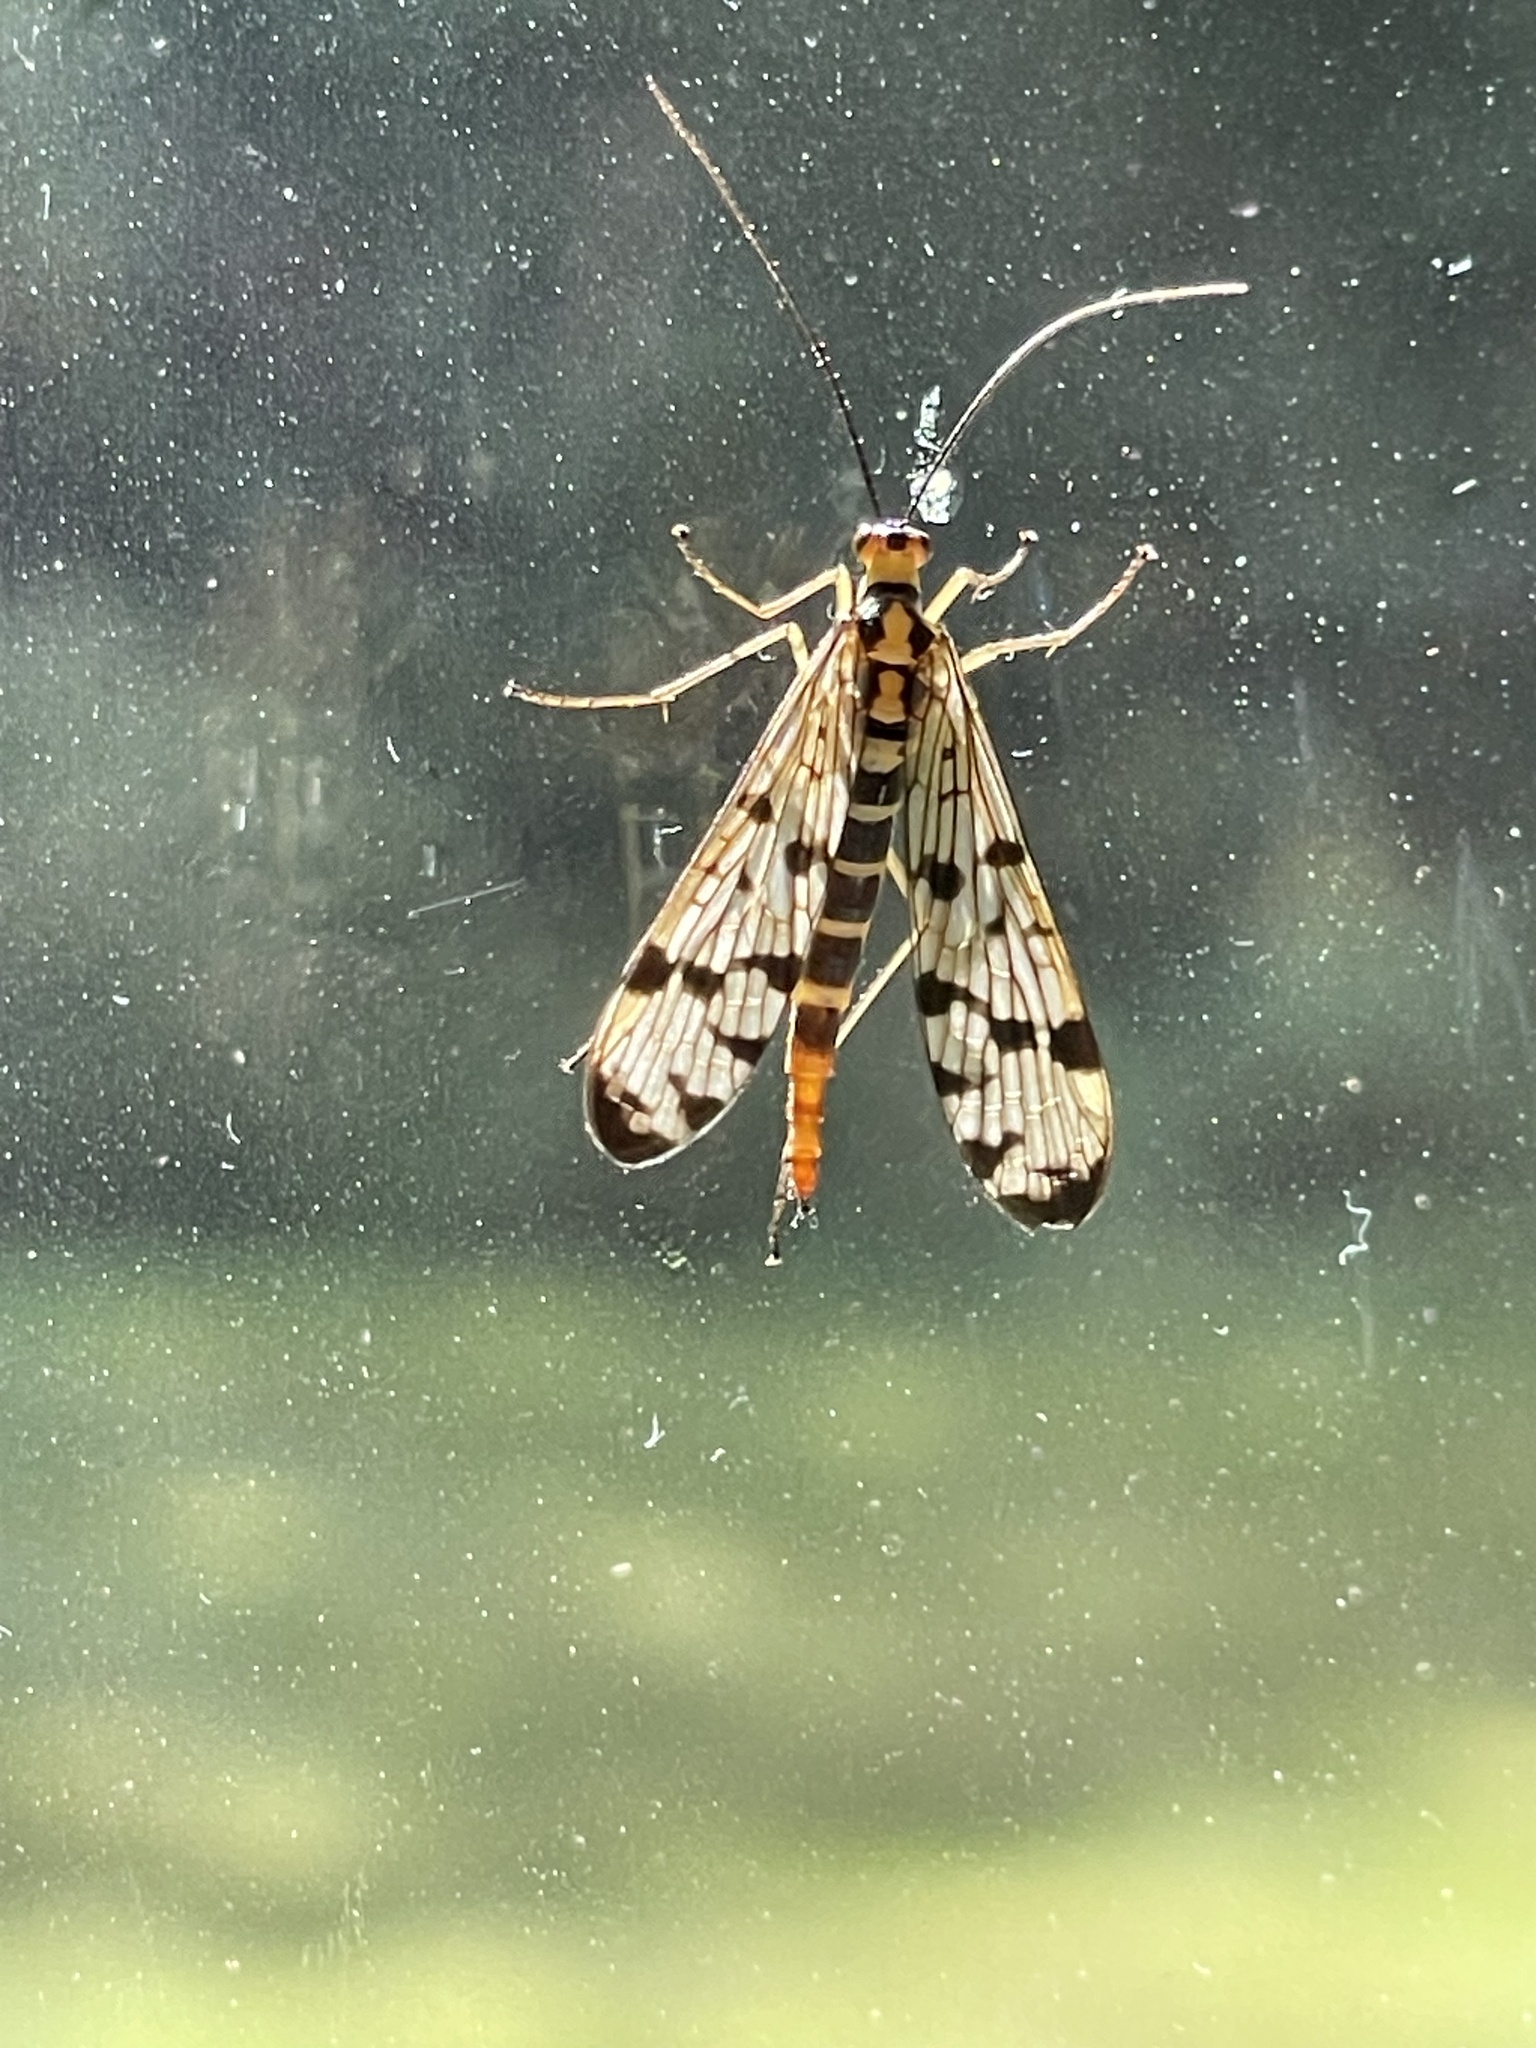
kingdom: Animalia
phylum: Arthropoda
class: Insecta
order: Mecoptera
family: Panorpidae
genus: Panorpa
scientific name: Panorpa
